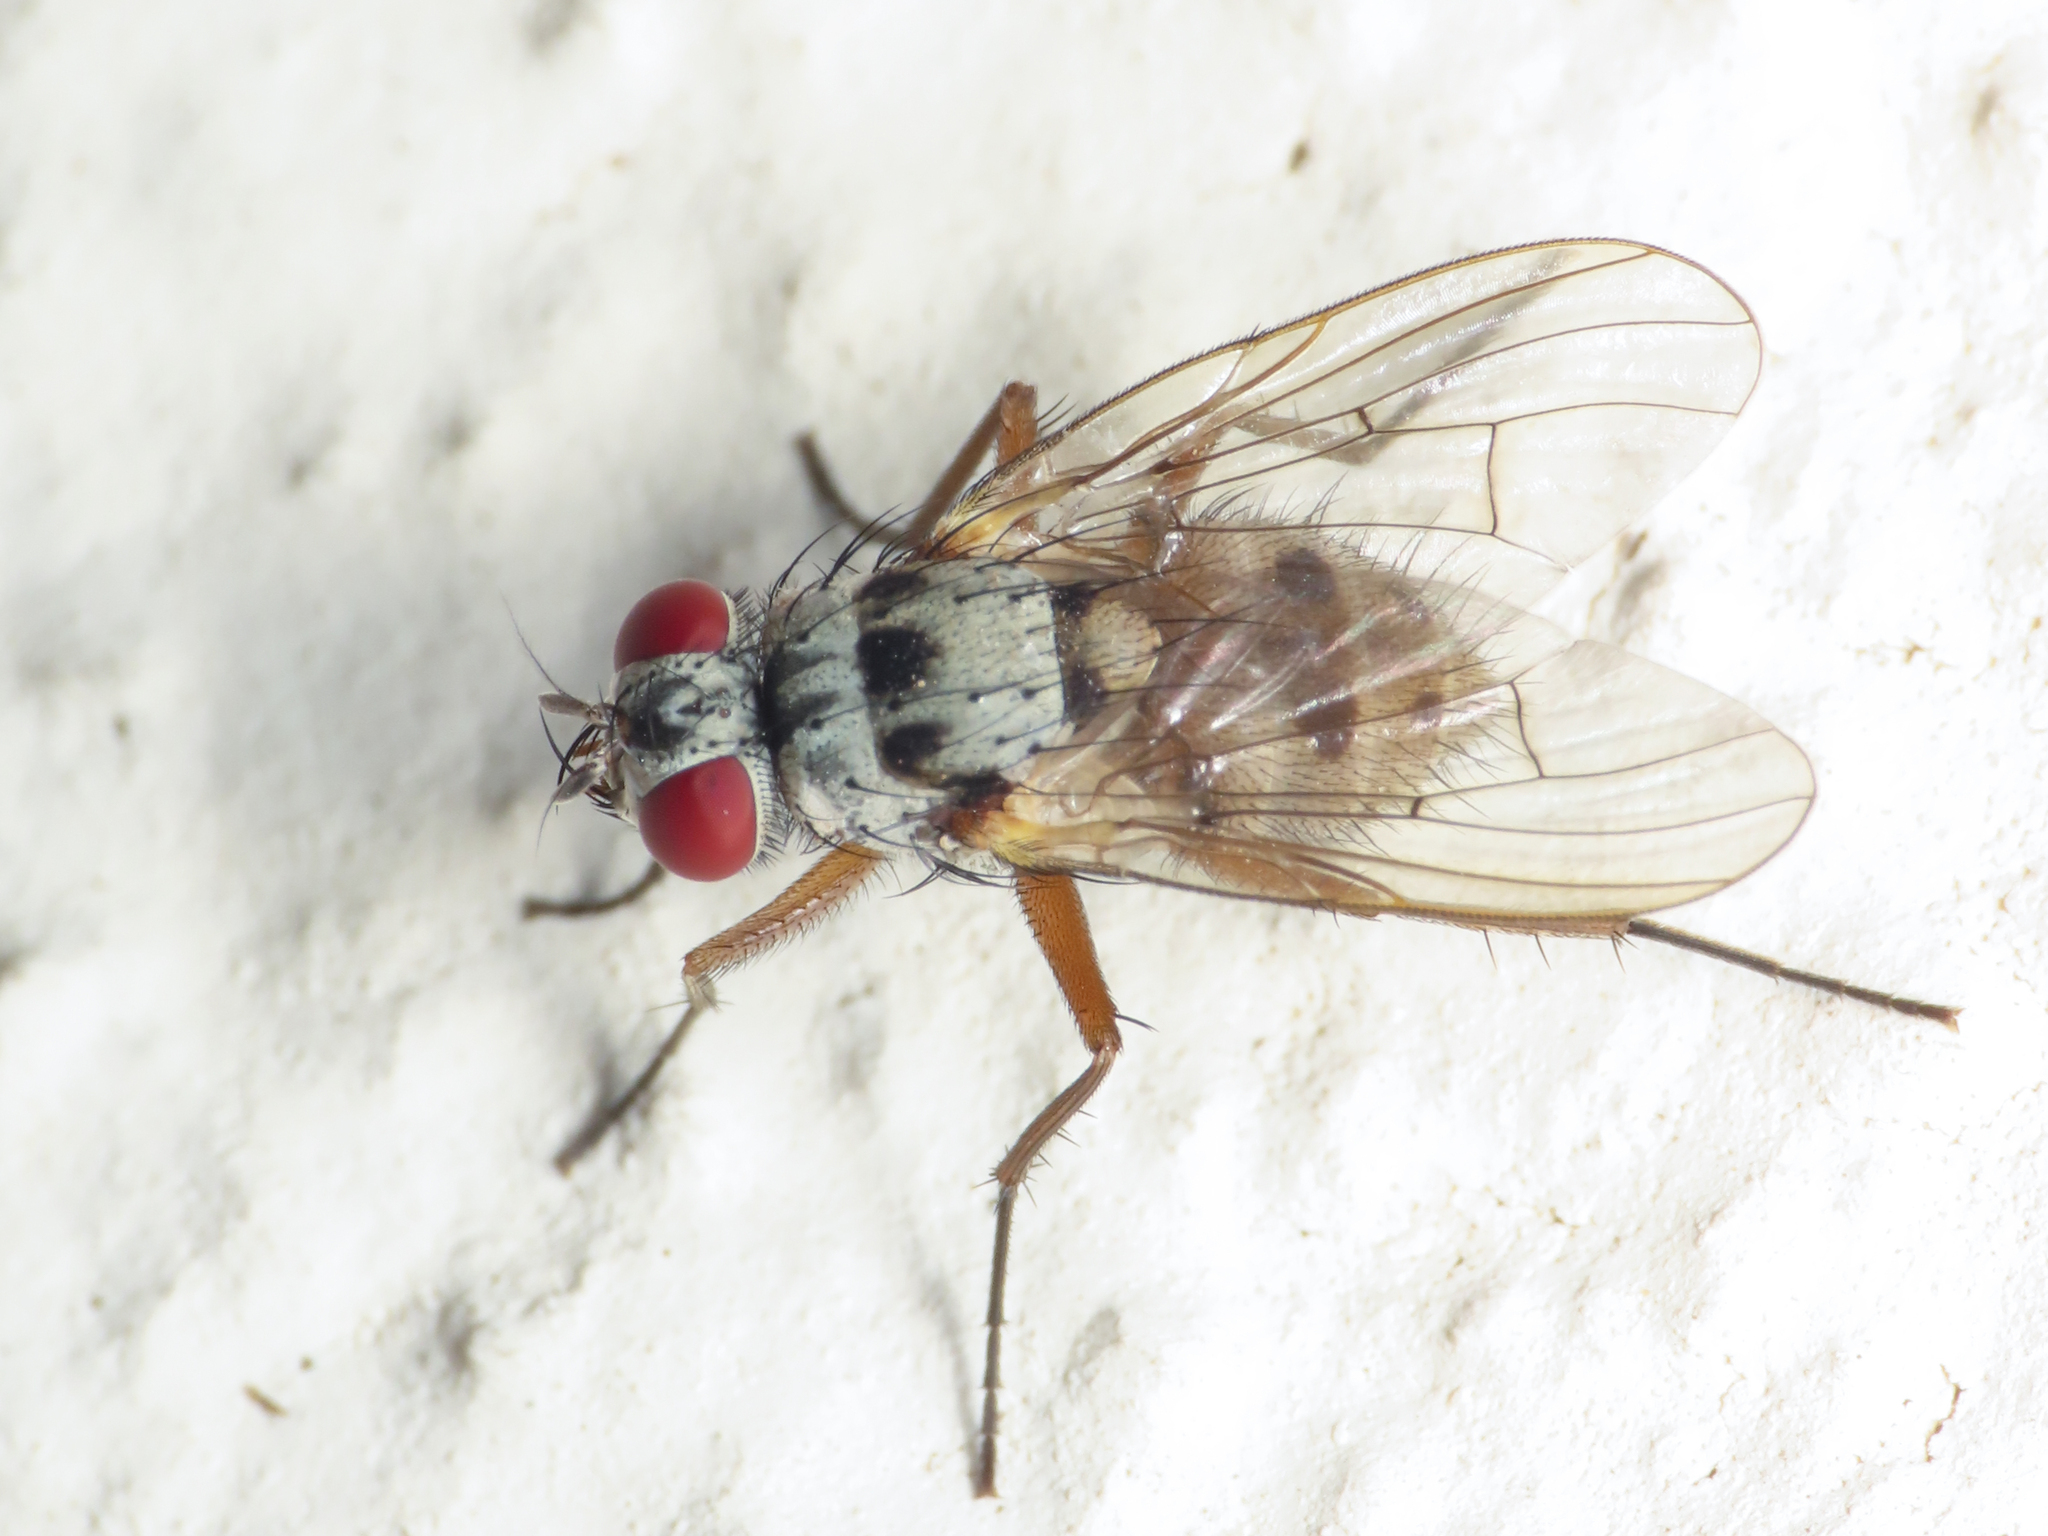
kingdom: Animalia
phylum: Arthropoda
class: Insecta
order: Diptera
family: Muscidae
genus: Helina
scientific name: Helina clara
